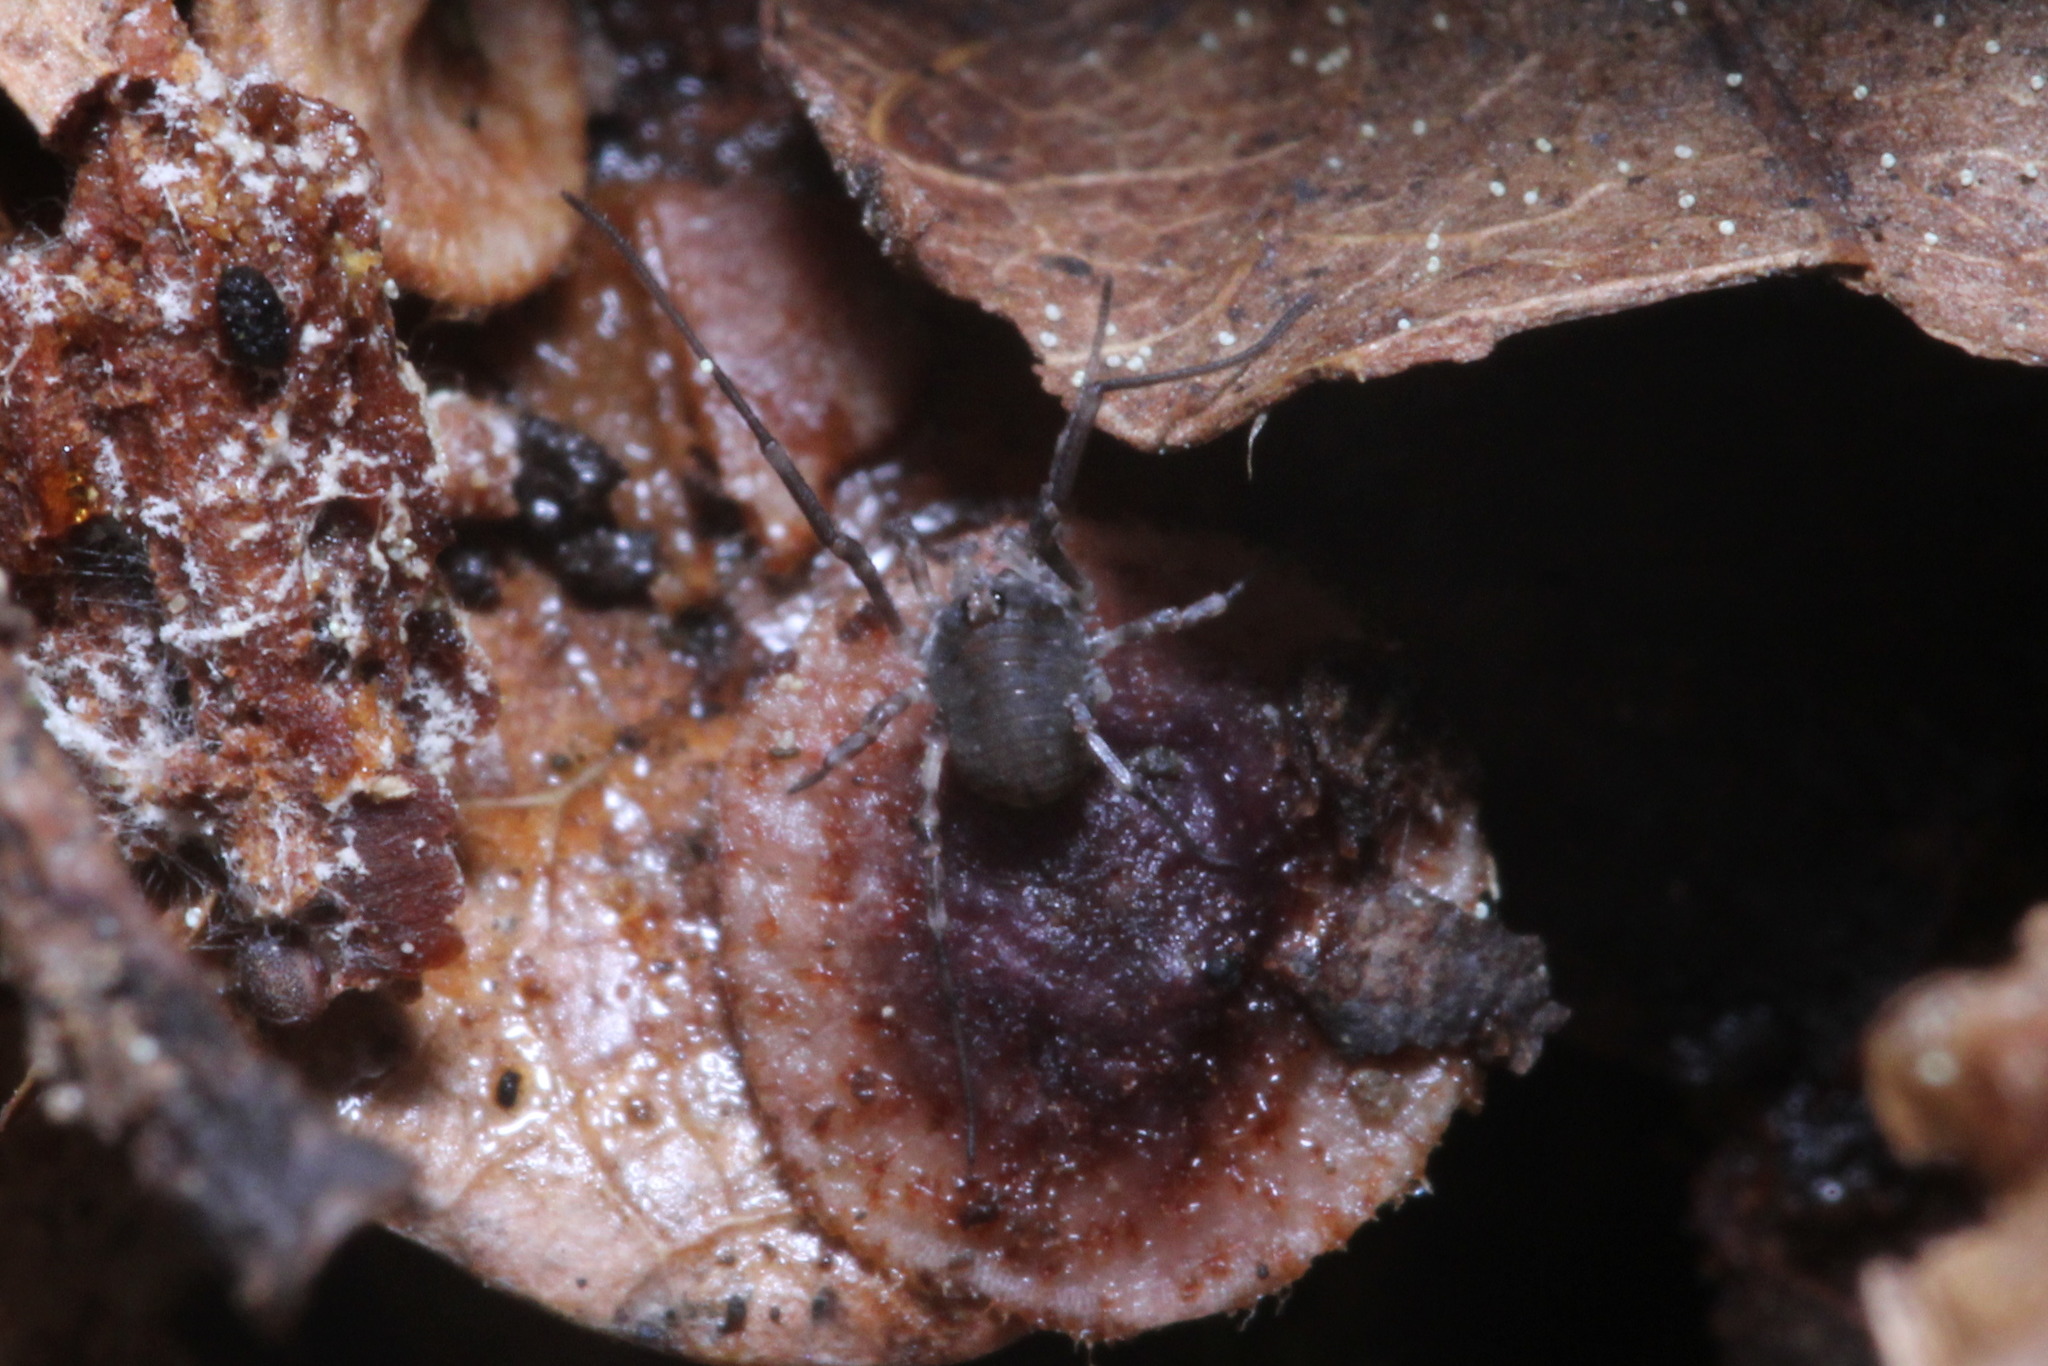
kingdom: Animalia
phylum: Arthropoda
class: Arachnida
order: Opiliones
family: Phalangiidae
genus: Lacinius
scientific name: Lacinius dentiger
